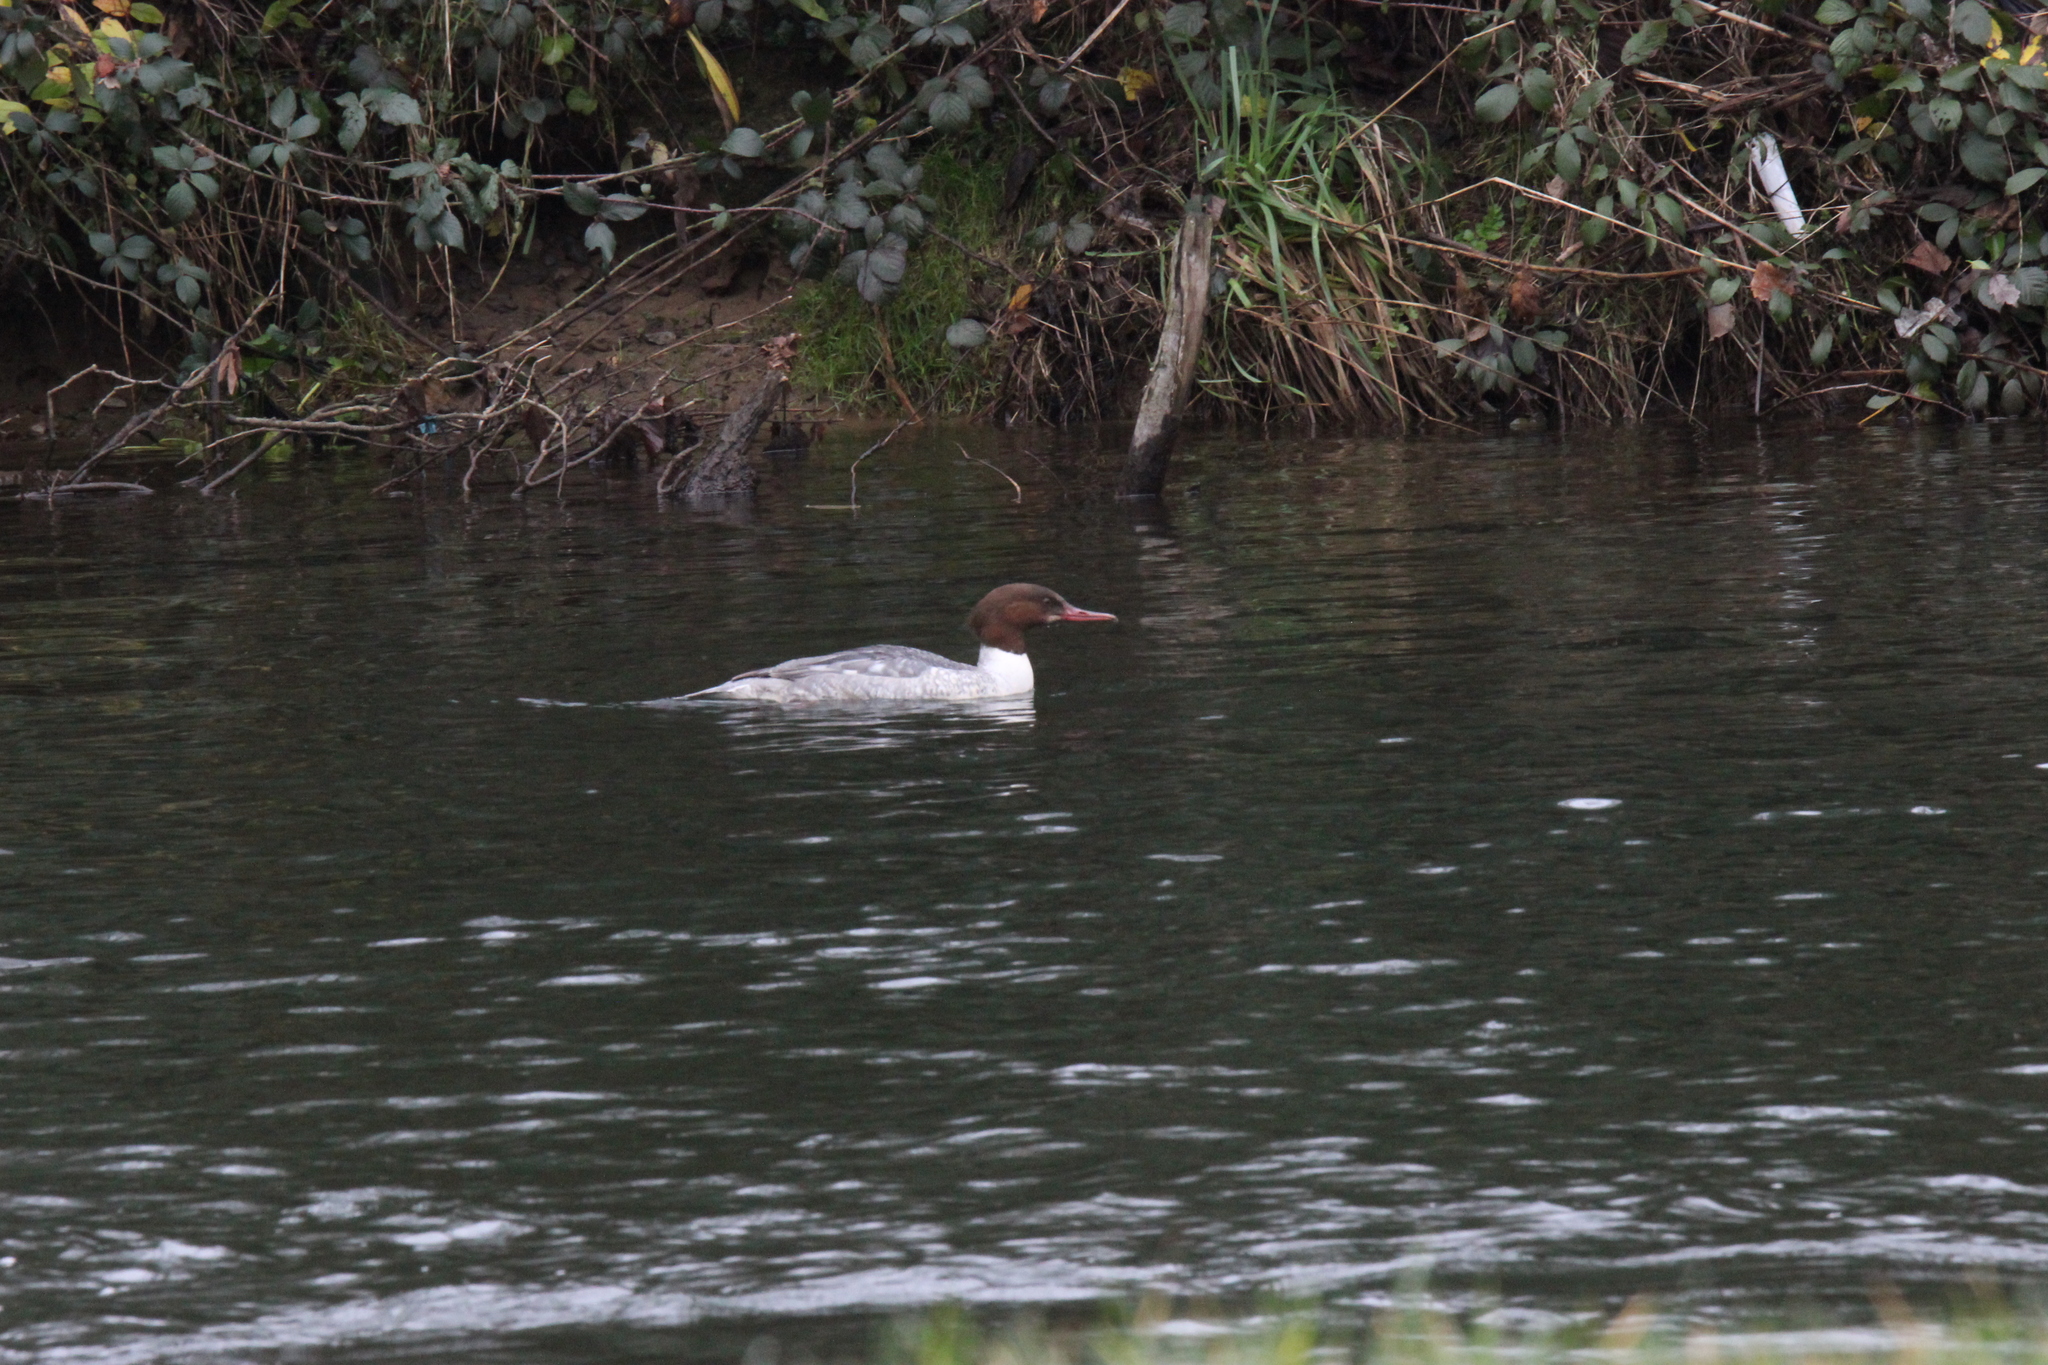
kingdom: Animalia
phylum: Chordata
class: Aves
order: Anseriformes
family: Anatidae
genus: Mergus
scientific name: Mergus merganser
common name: Common merganser
